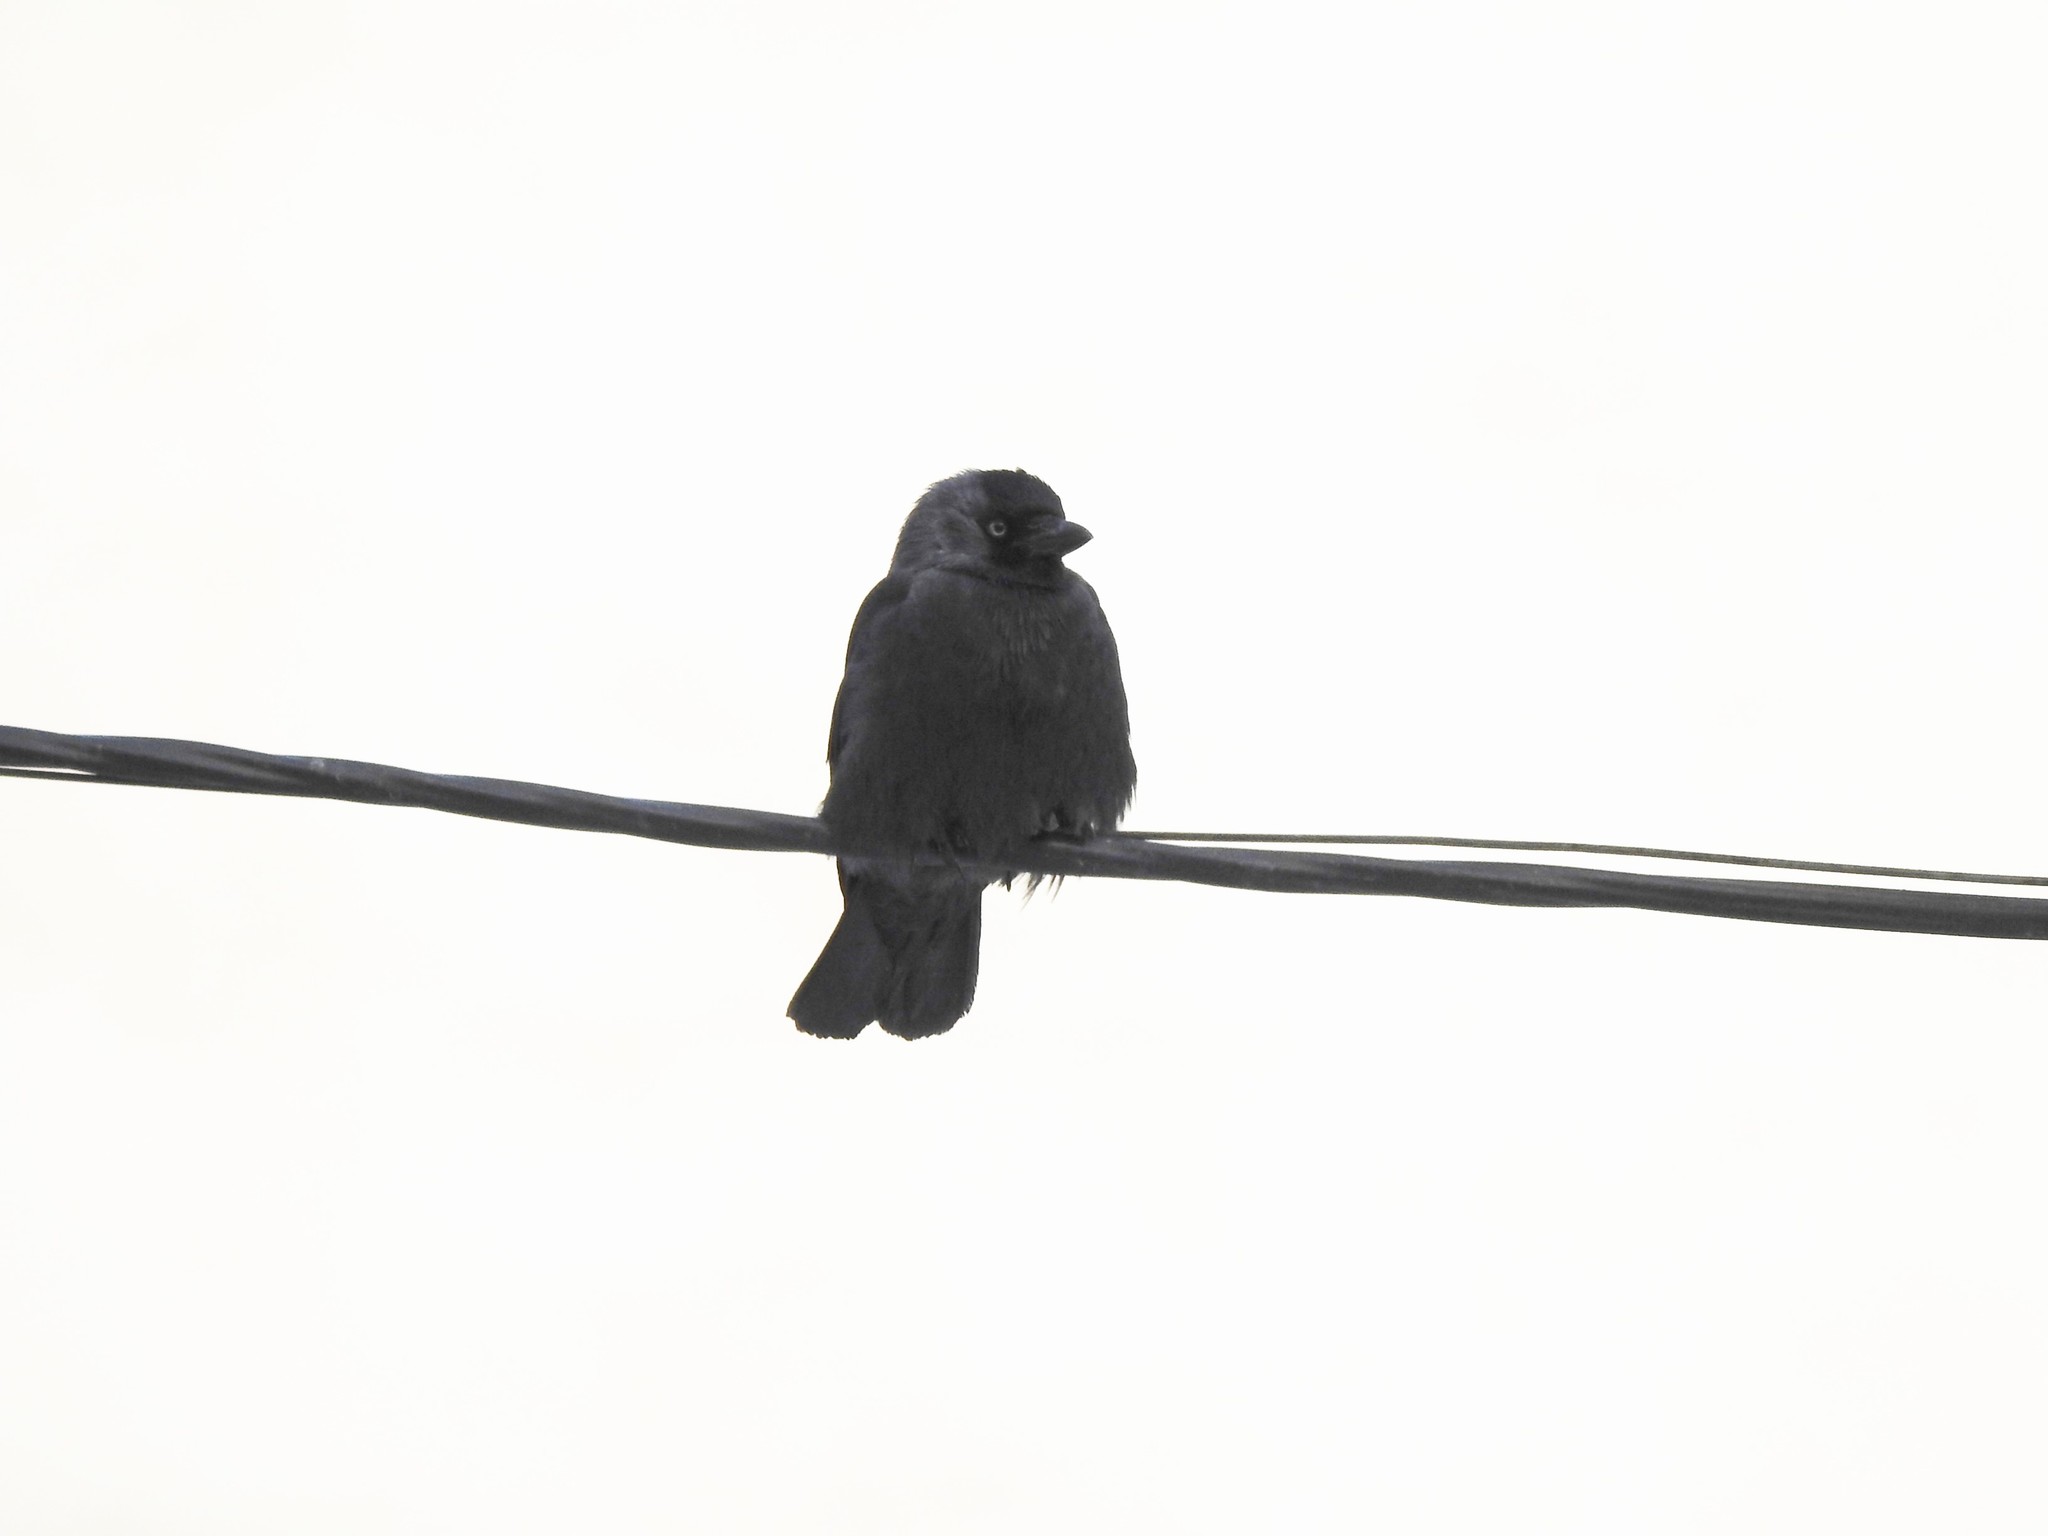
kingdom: Animalia
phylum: Chordata
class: Aves
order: Passeriformes
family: Corvidae
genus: Coloeus
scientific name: Coloeus monedula
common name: Western jackdaw
